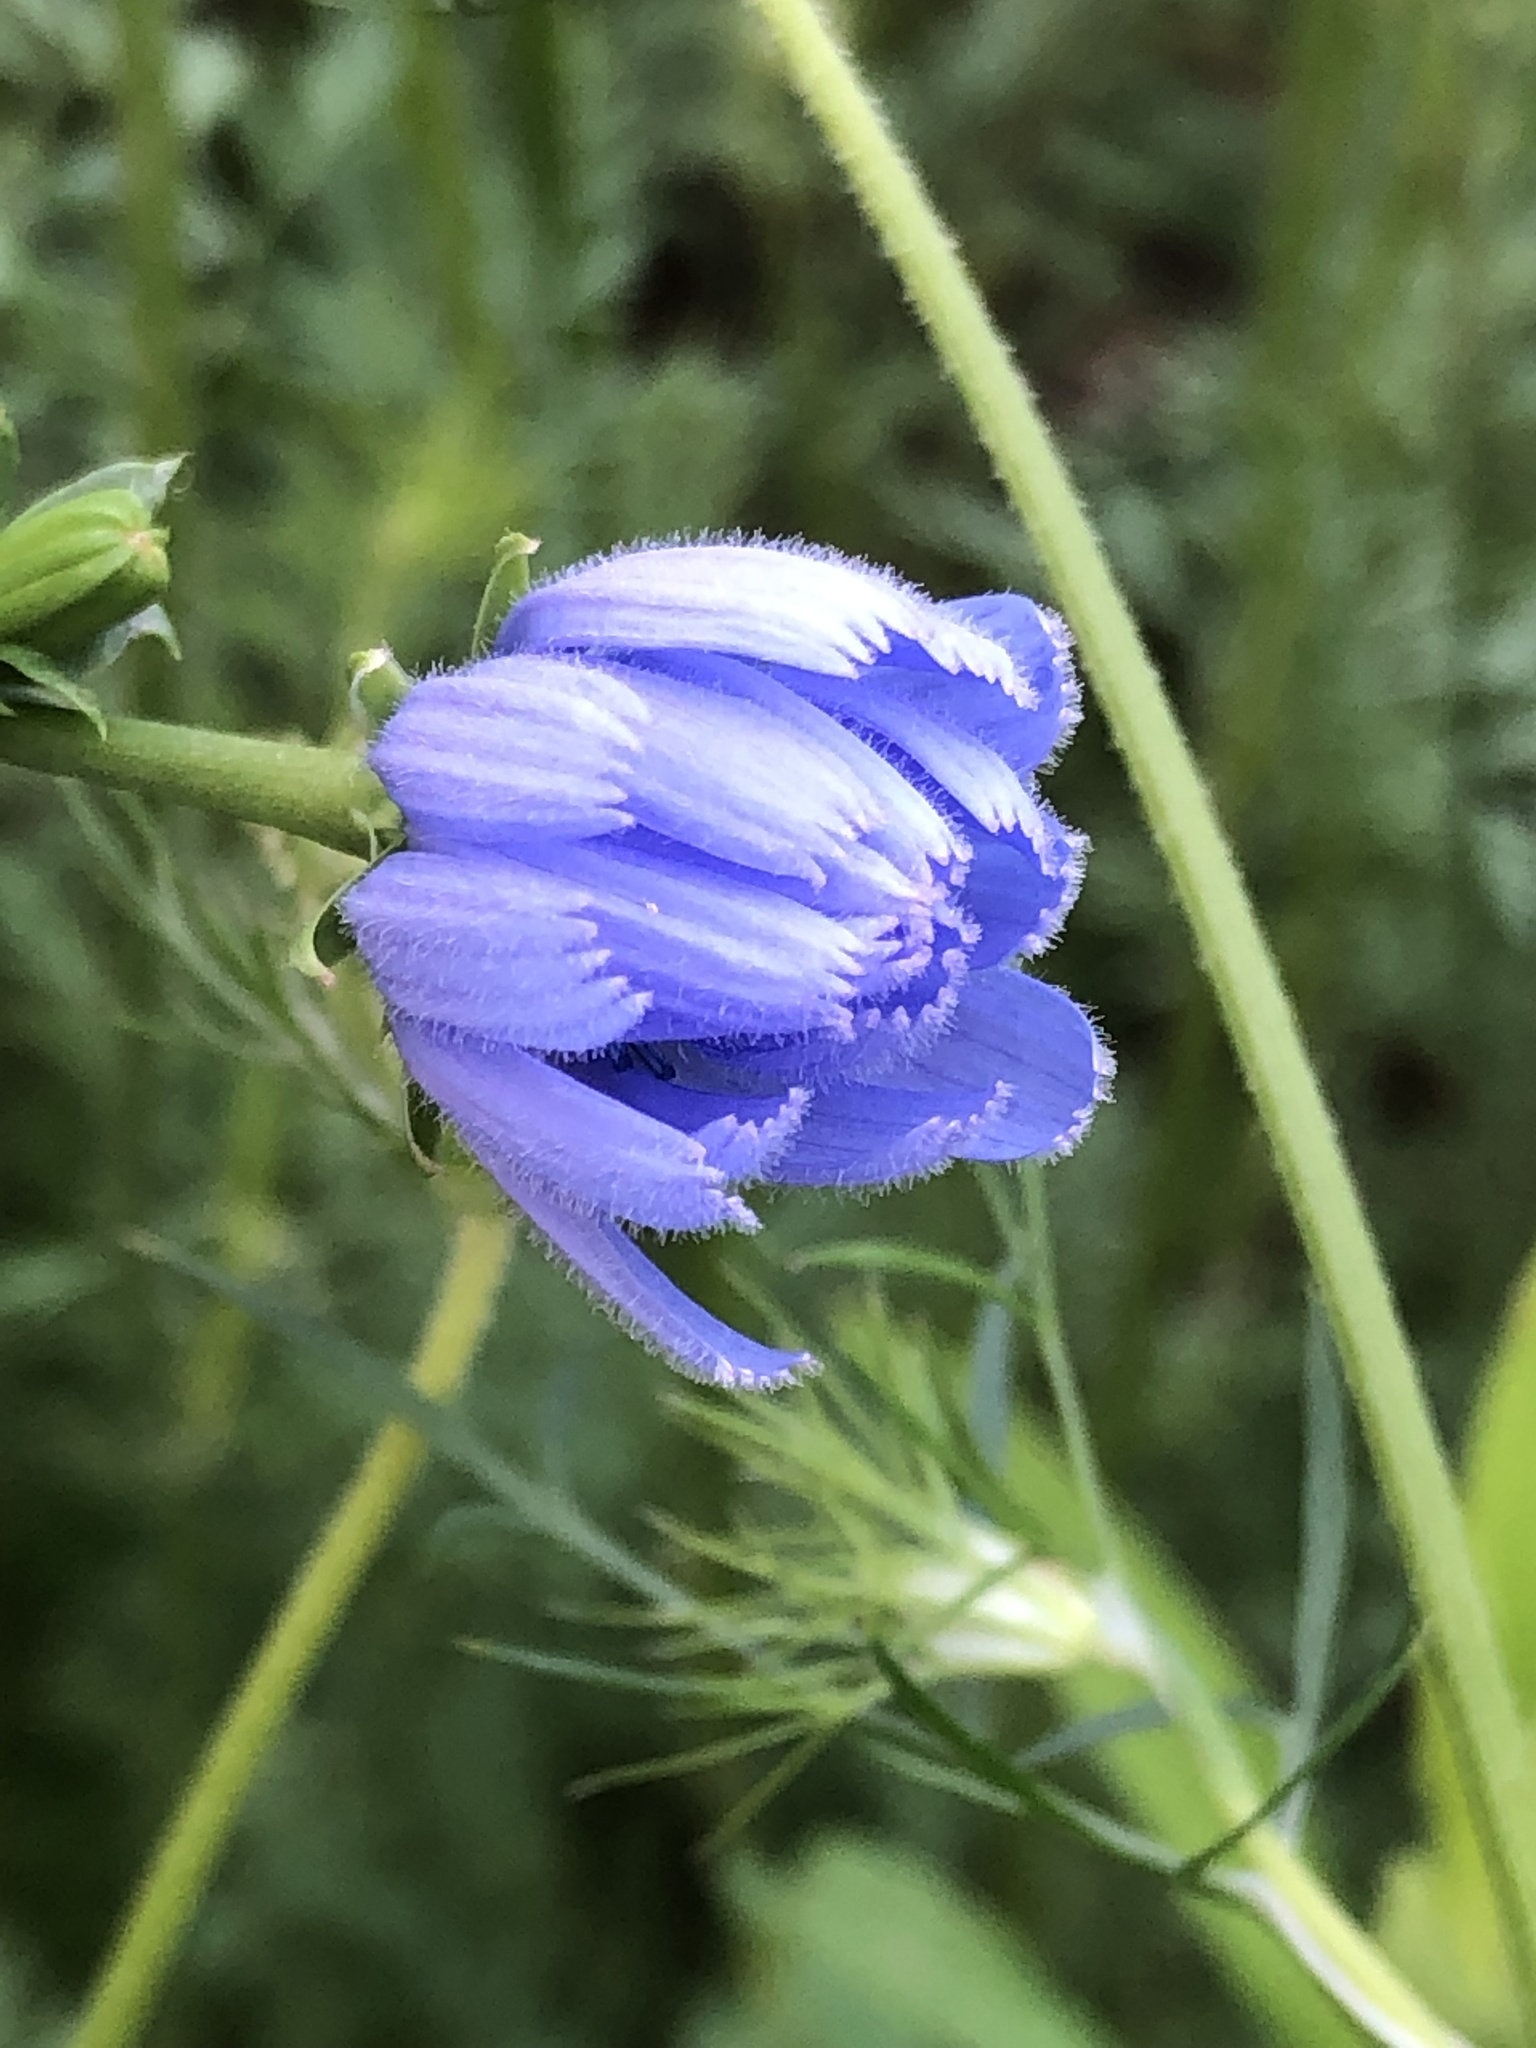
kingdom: Plantae
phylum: Tracheophyta
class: Magnoliopsida
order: Asterales
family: Asteraceae
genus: Cichorium
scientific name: Cichorium intybus
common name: Chicory
